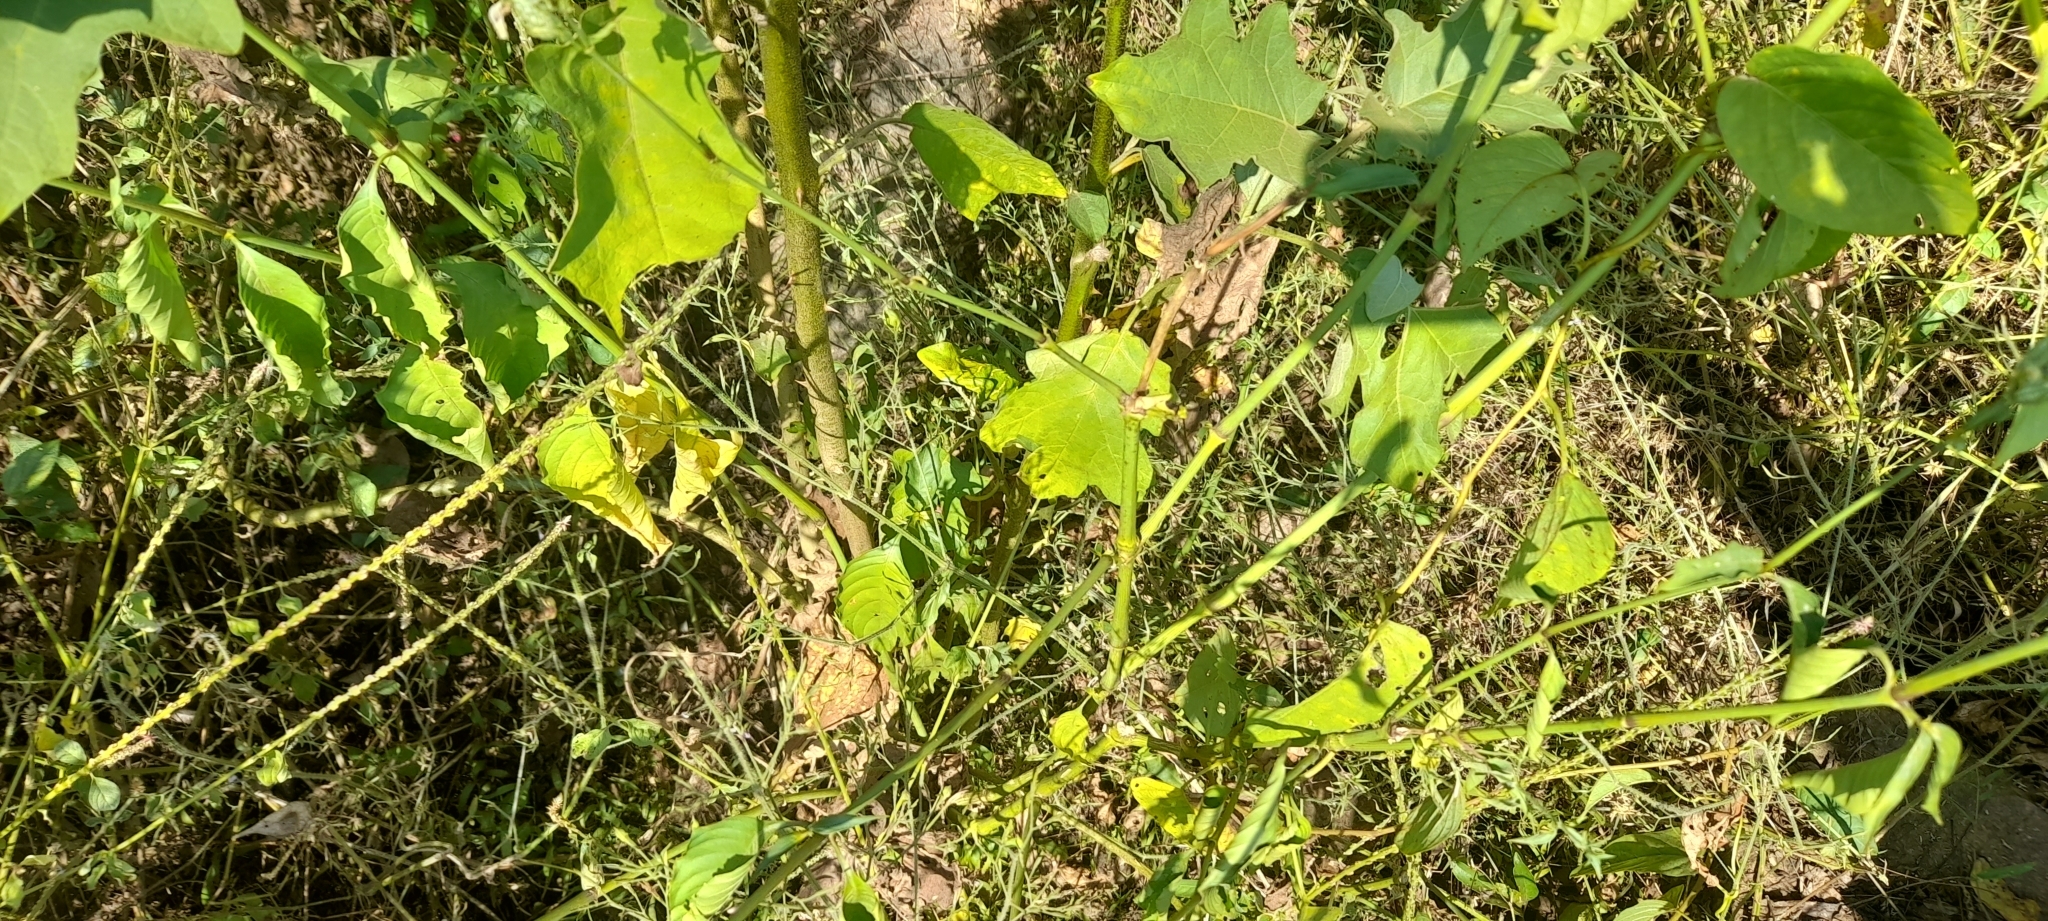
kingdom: Animalia
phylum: Chordata
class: Squamata
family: Agamidae
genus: Calotes
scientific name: Calotes calotes
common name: Common green forest lizard
